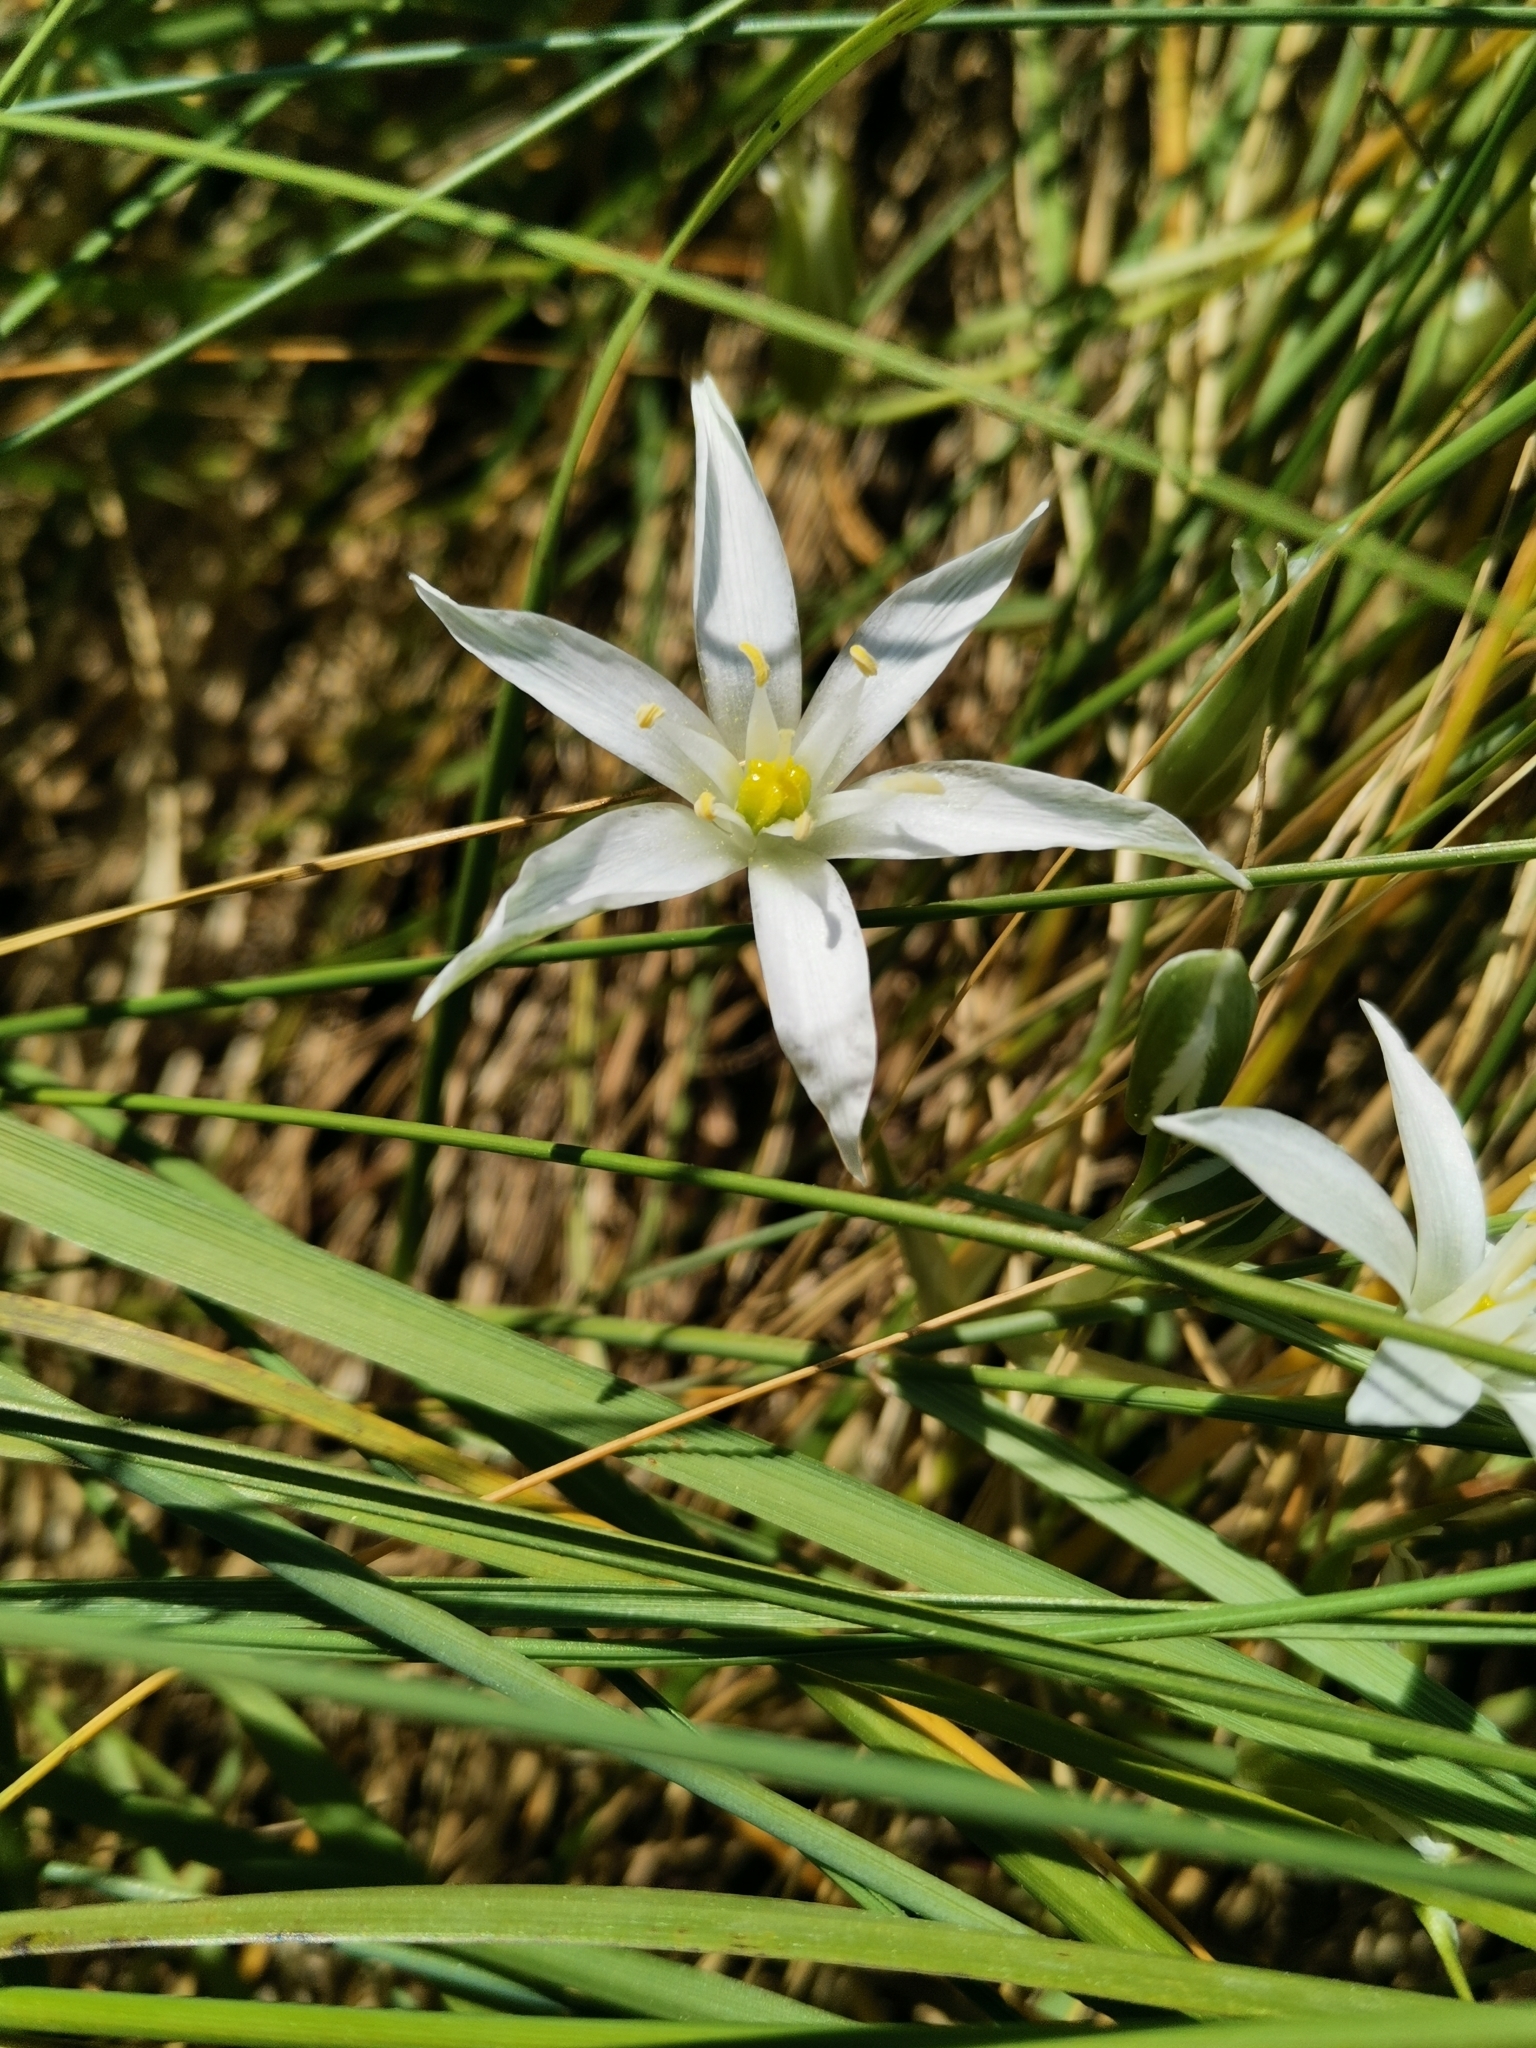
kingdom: Plantae
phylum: Tracheophyta
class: Liliopsida
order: Asparagales
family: Asparagaceae
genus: Ornithogalum
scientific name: Ornithogalum umbellatum
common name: Garden star-of-bethlehem
